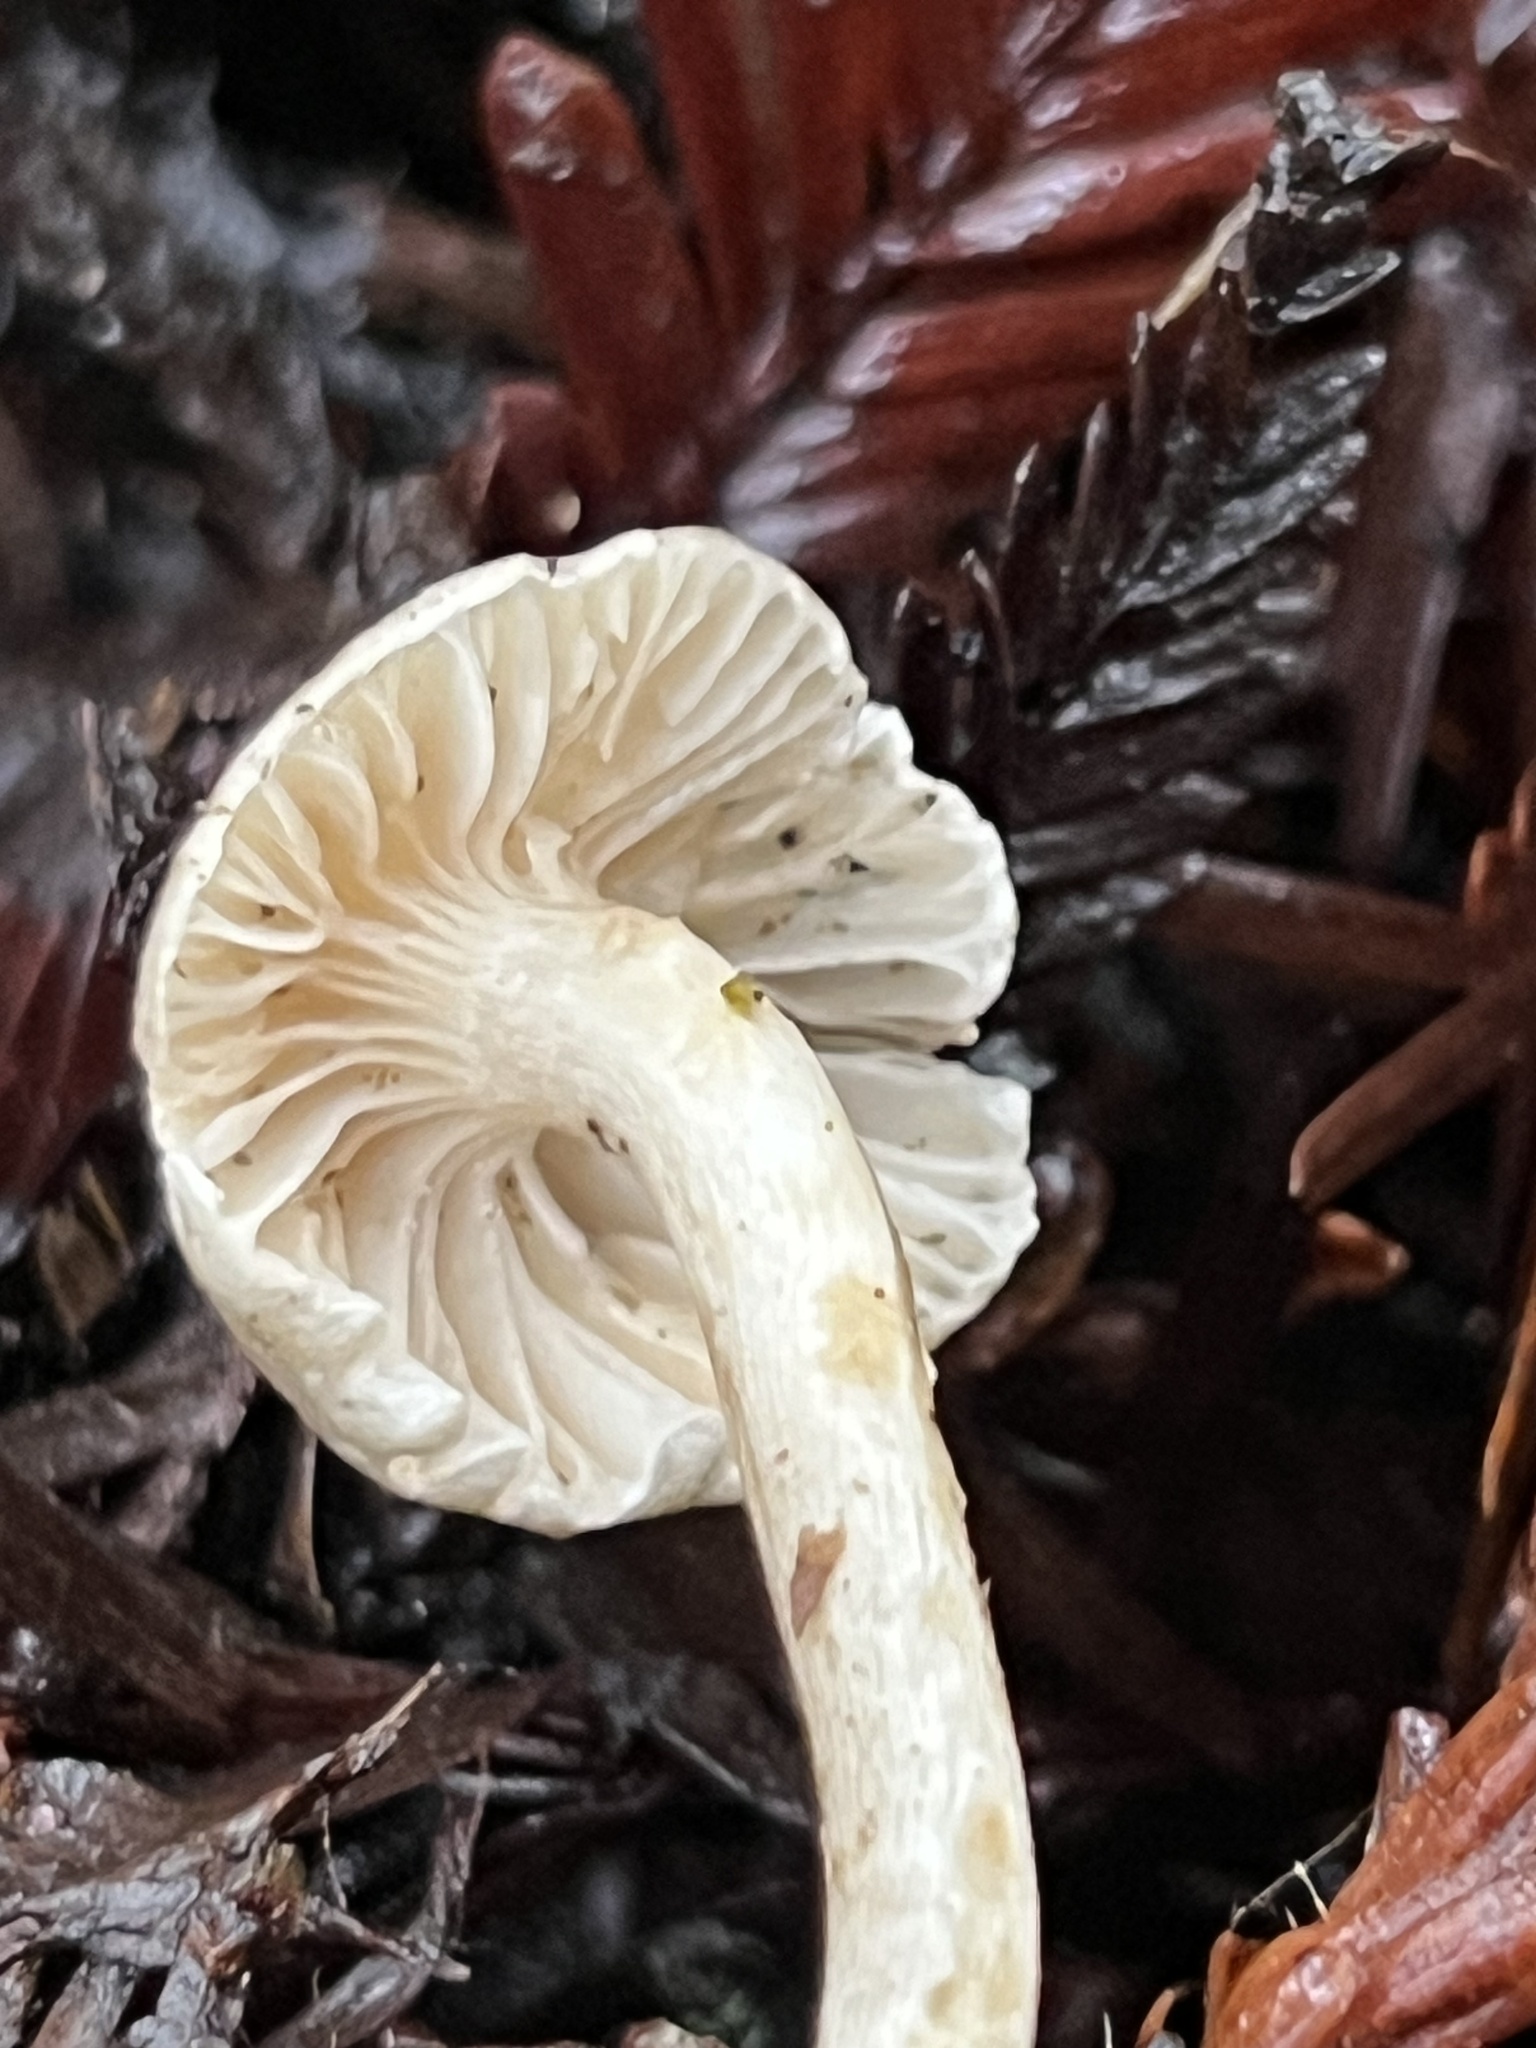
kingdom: Fungi
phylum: Basidiomycota
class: Agaricomycetes
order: Agaricales
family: Hygrophoraceae
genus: Cuphophyllus
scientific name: Cuphophyllus russocoriaceus
